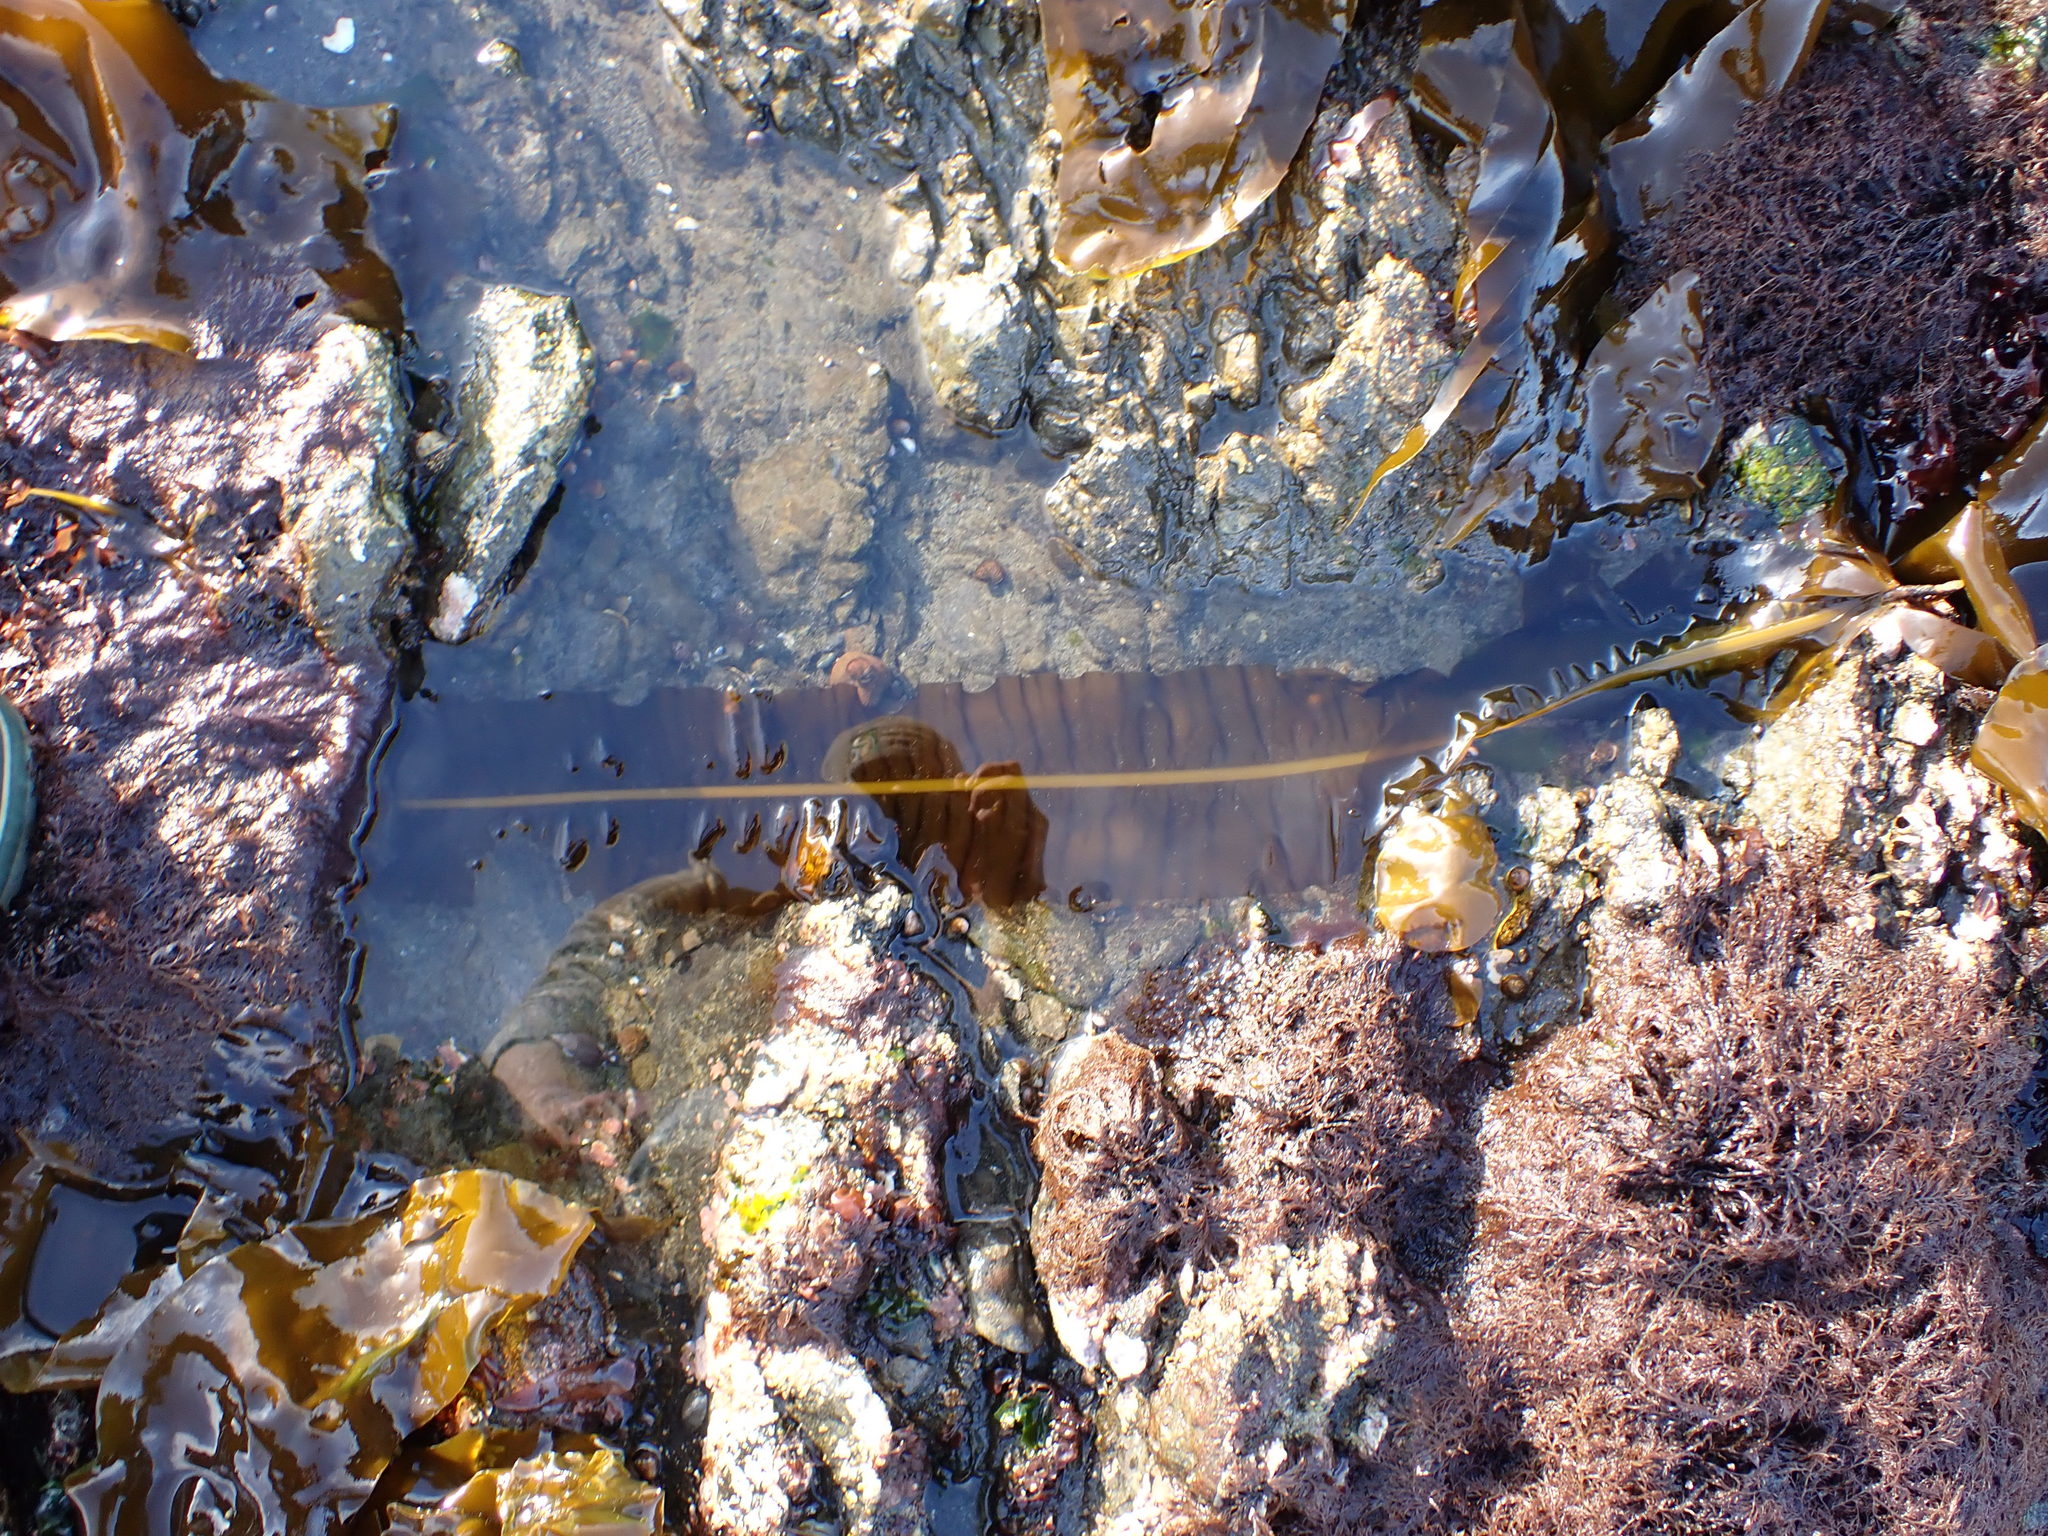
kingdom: Chromista
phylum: Ochrophyta
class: Phaeophyceae
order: Laminariales
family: Alariaceae
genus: Alaria
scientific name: Alaria marginata
